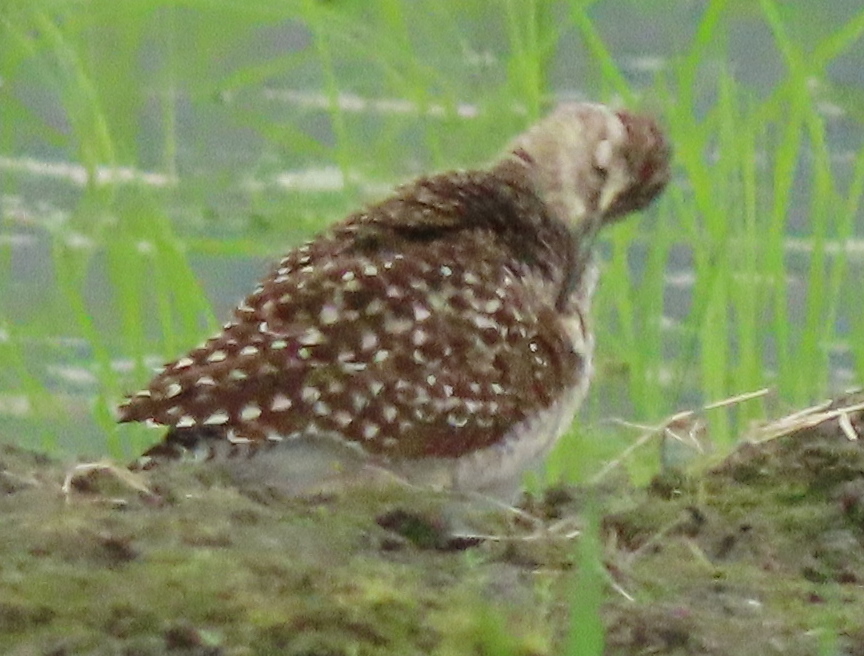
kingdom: Animalia
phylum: Chordata
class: Aves
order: Charadriiformes
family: Scolopacidae
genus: Tringa
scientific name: Tringa glareola
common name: Wood sandpiper
